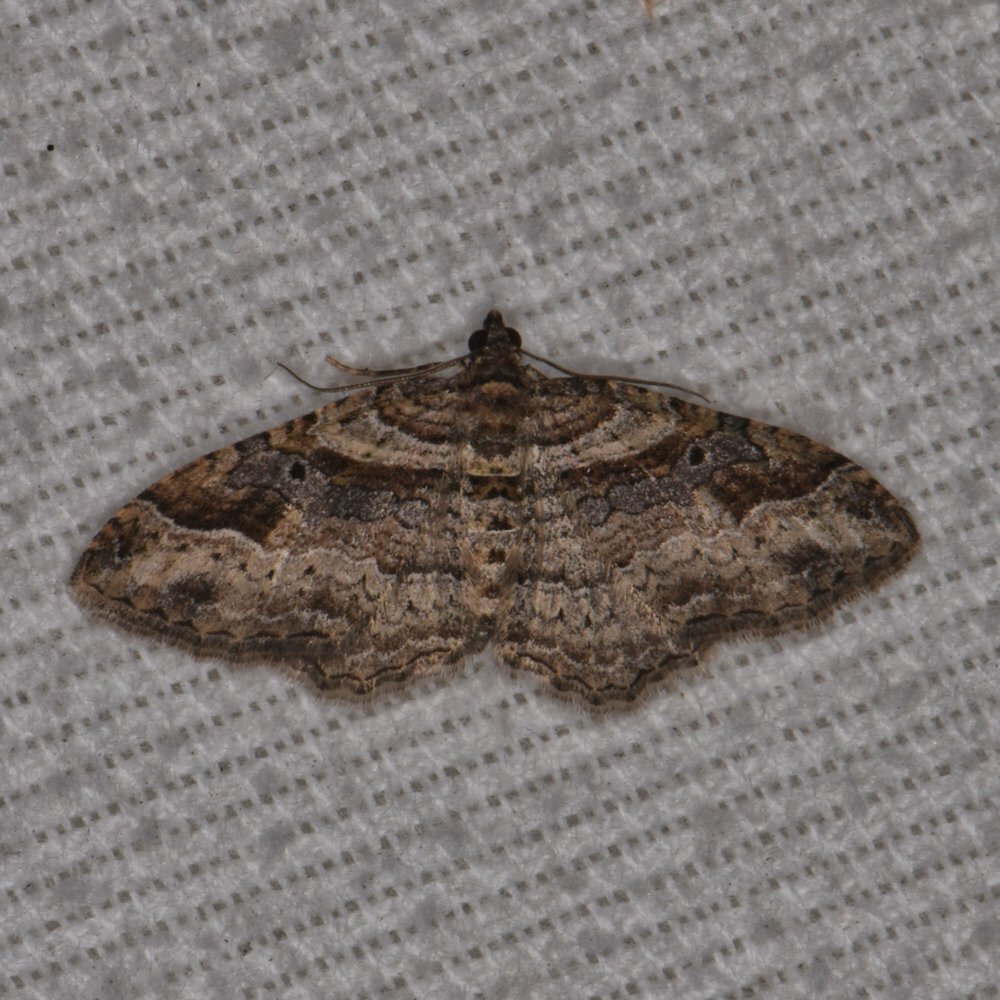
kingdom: Animalia
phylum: Arthropoda
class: Insecta
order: Lepidoptera
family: Geometridae
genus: Costaconvexa
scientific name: Costaconvexa centrostrigaria
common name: Bent-line carpet
